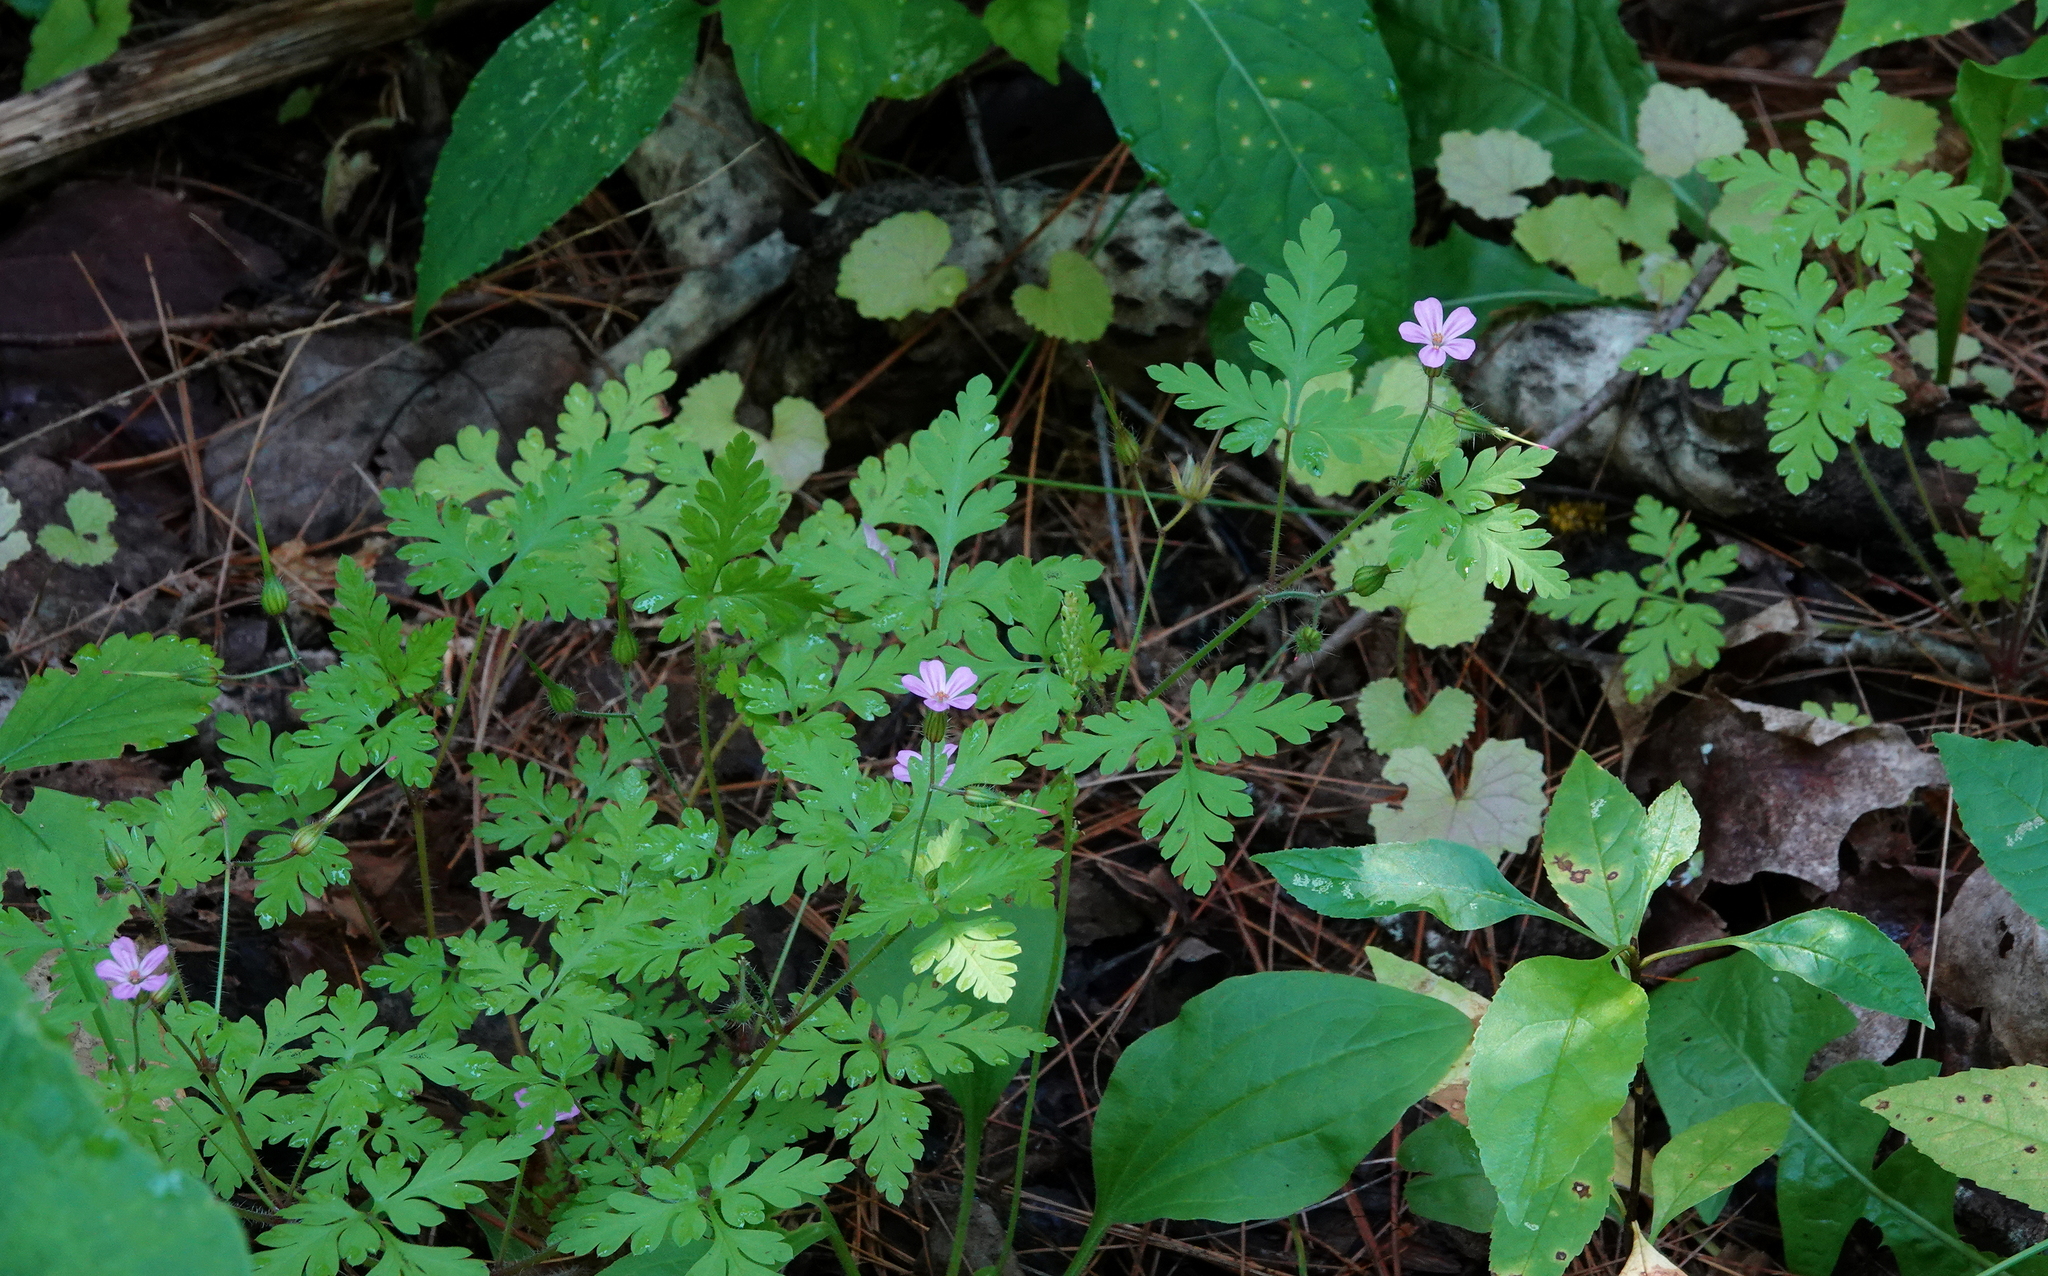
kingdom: Plantae
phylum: Tracheophyta
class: Magnoliopsida
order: Geraniales
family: Geraniaceae
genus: Geranium
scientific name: Geranium robertianum
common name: Herb-robert
